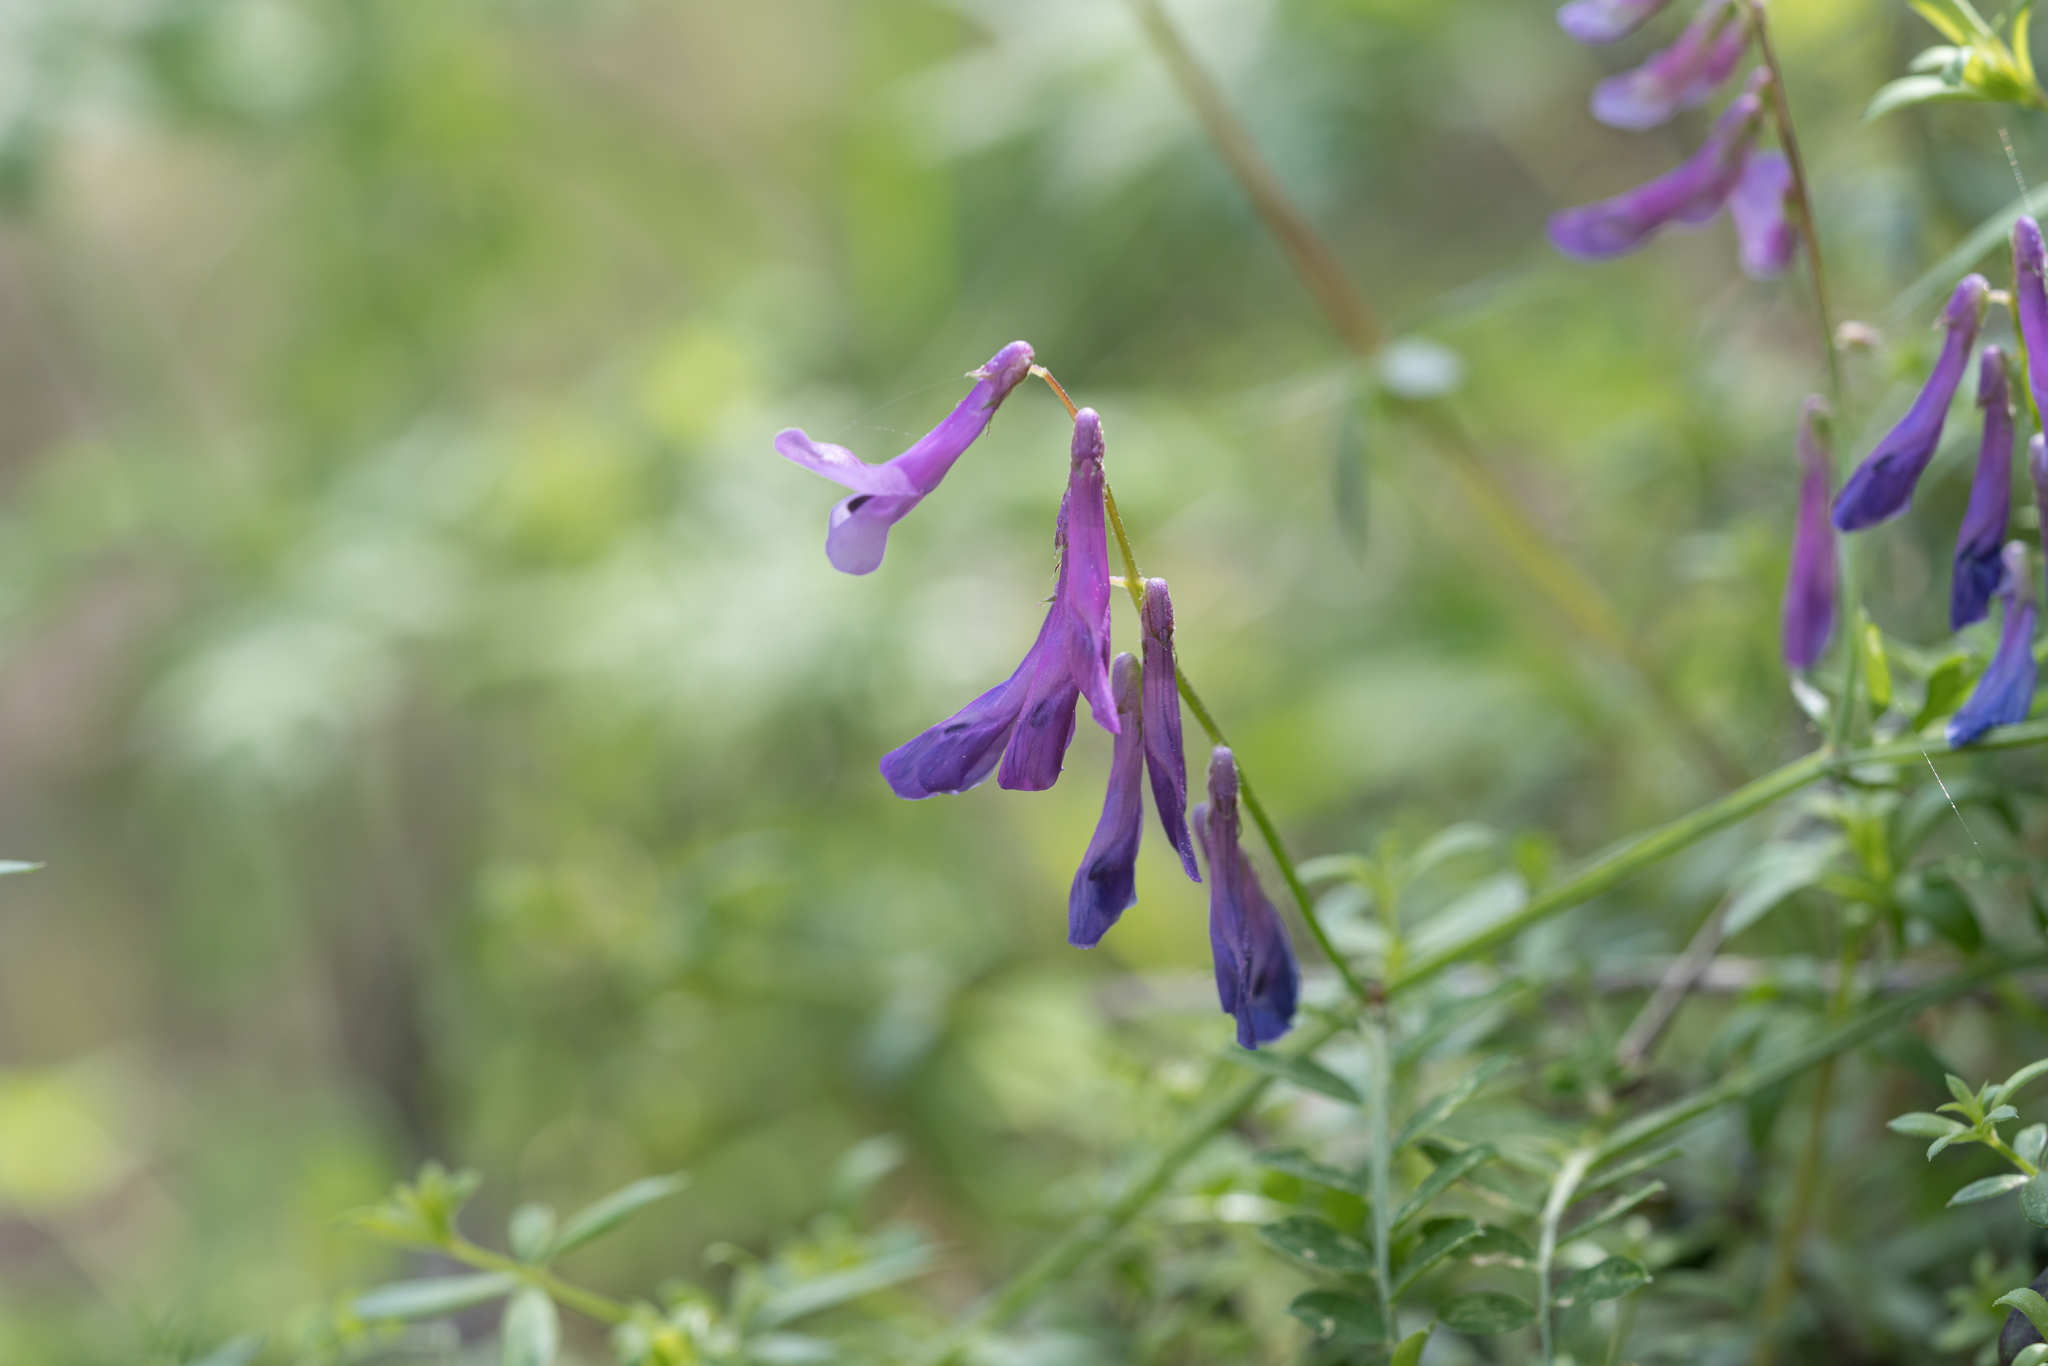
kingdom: Plantae
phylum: Tracheophyta
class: Magnoliopsida
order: Fabales
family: Fabaceae
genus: Vicia
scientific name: Vicia eriocarpa
